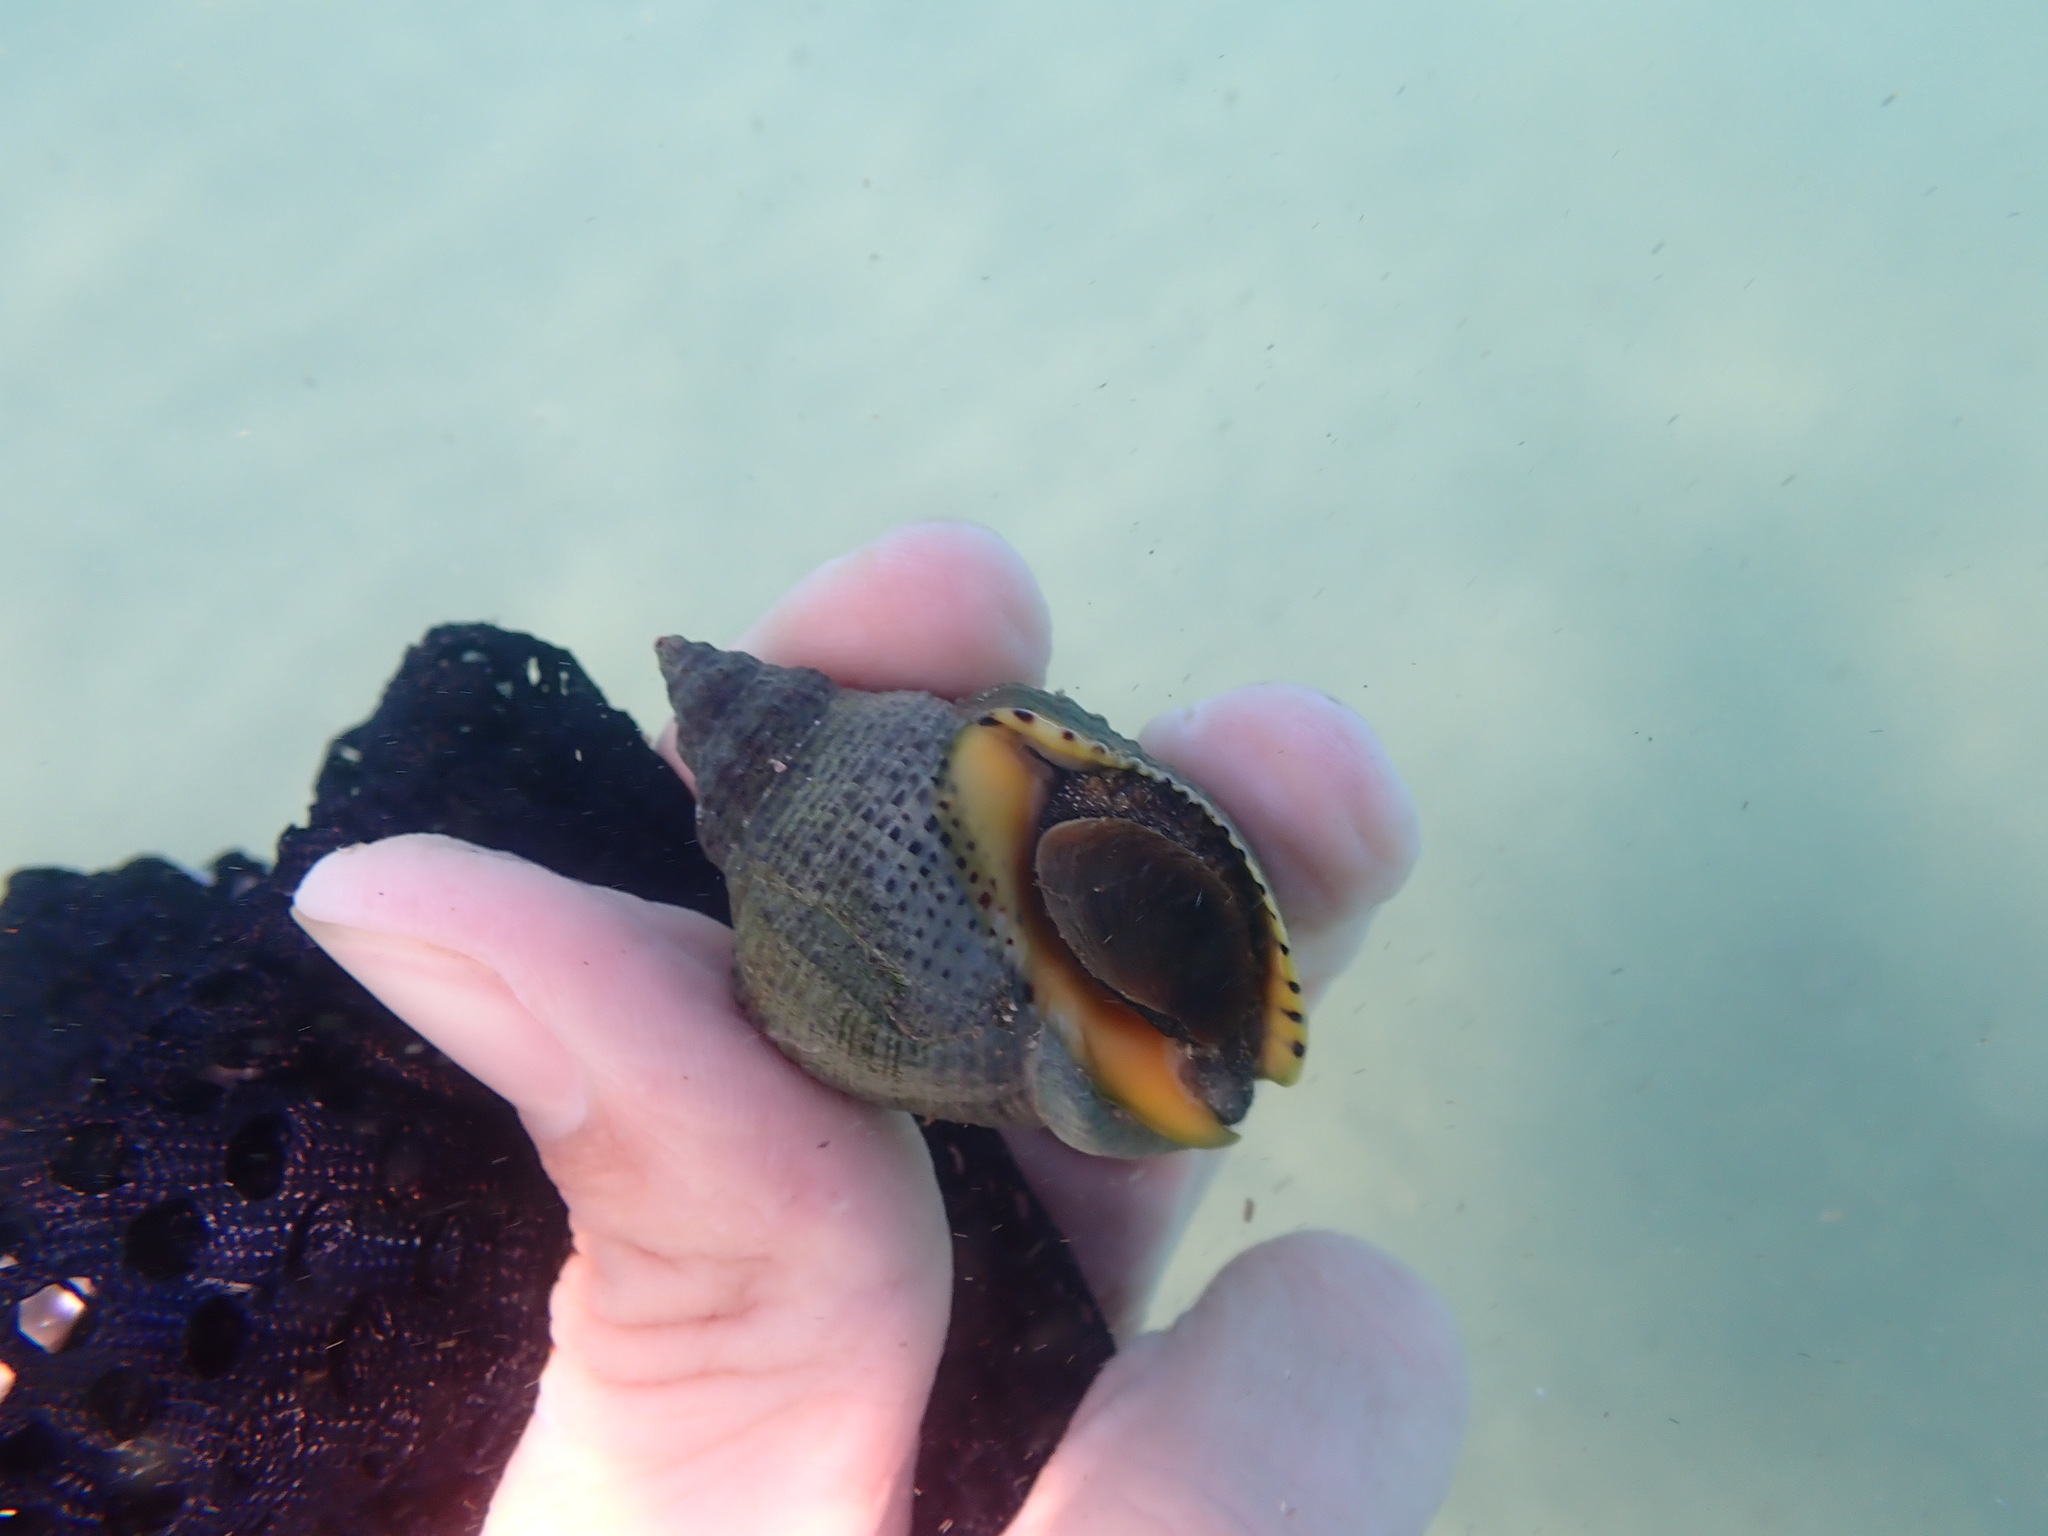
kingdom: Animalia
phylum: Mollusca
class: Gastropoda
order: Neogastropoda
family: Cominellidae
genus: Cominella
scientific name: Cominella adspersa
